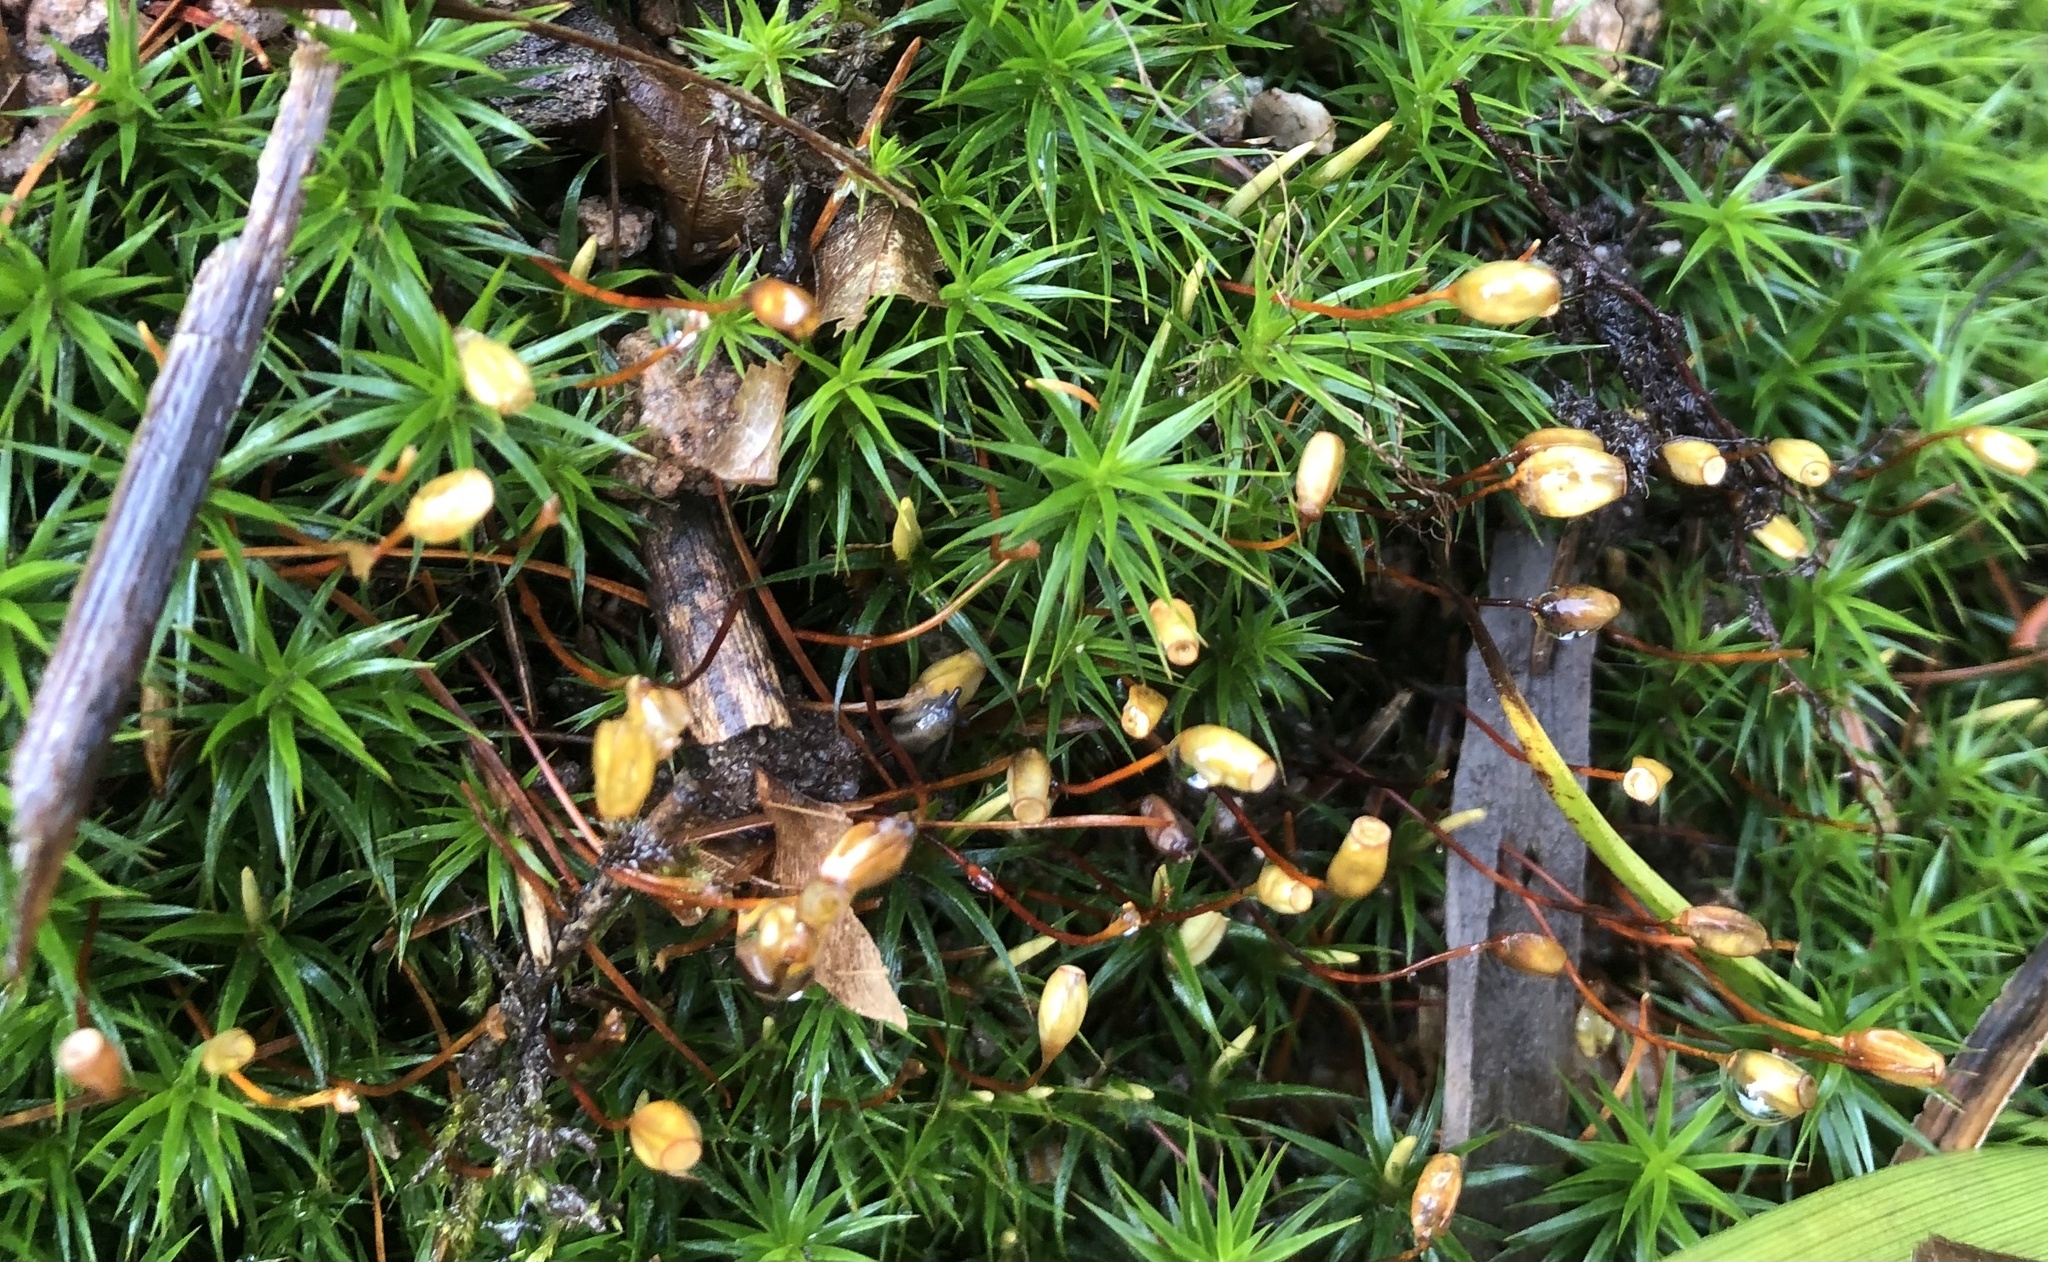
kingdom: Plantae
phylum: Bryophyta
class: Polytrichopsida
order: Polytrichales
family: Polytrichaceae
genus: Polytrichum
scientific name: Polytrichum formosum
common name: Bank haircap moss
